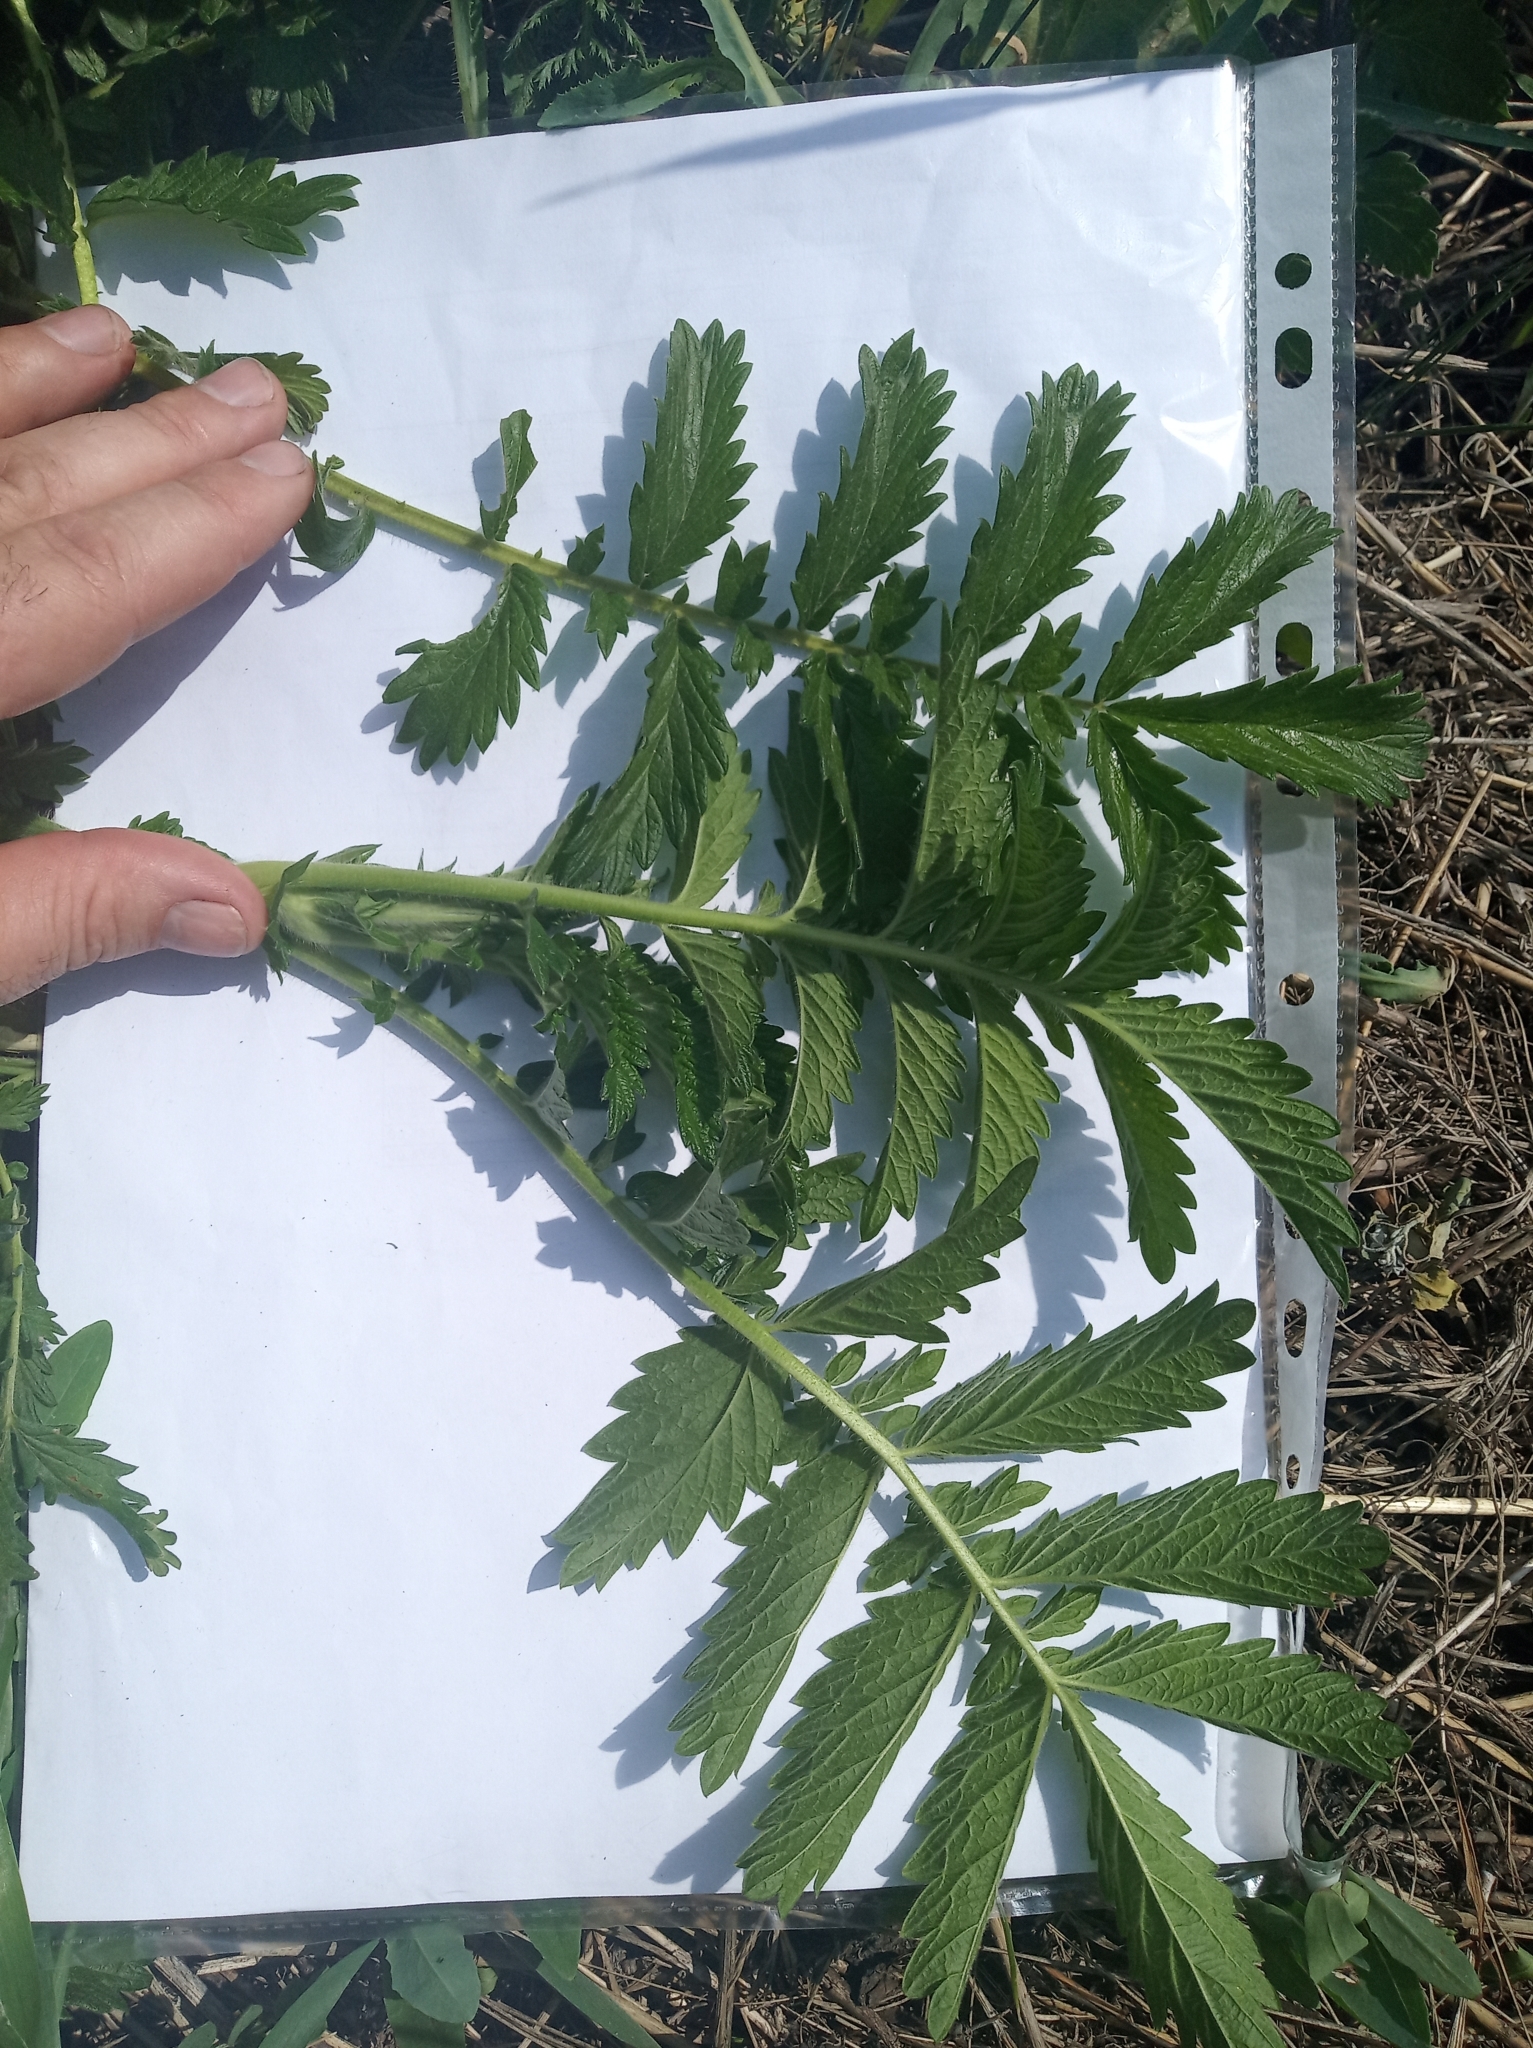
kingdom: Plantae
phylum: Tracheophyta
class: Magnoliopsida
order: Rosales
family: Rosaceae
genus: Agrimonia
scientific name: Agrimonia eupatoria
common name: Agrimony
